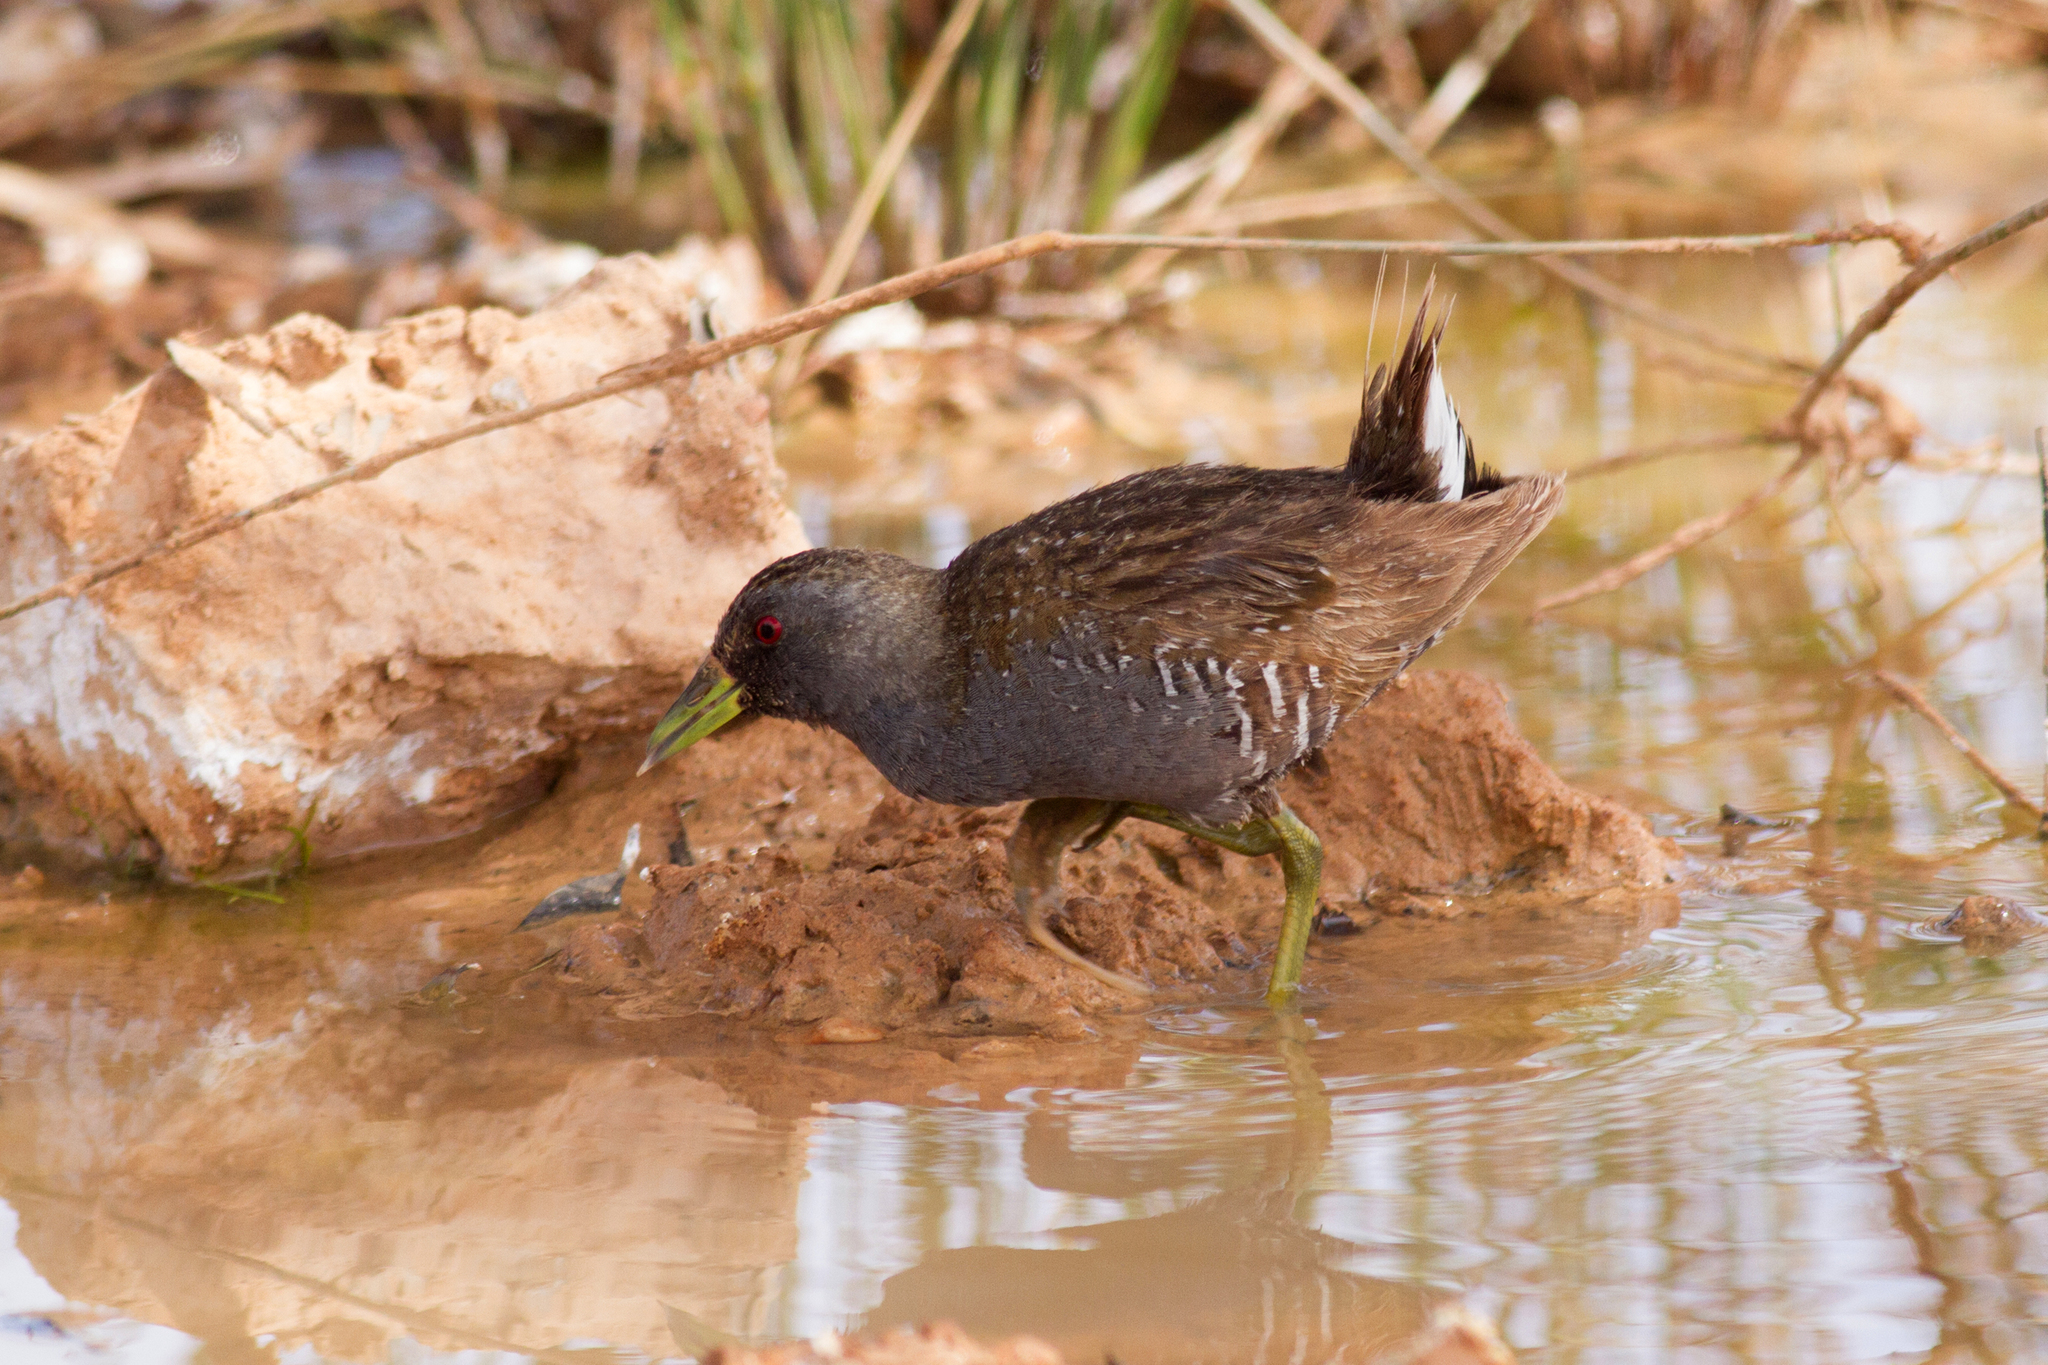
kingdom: Animalia
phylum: Chordata
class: Aves
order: Gruiformes
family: Rallidae
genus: Porzana
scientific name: Porzana fluminea
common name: Australian crake
